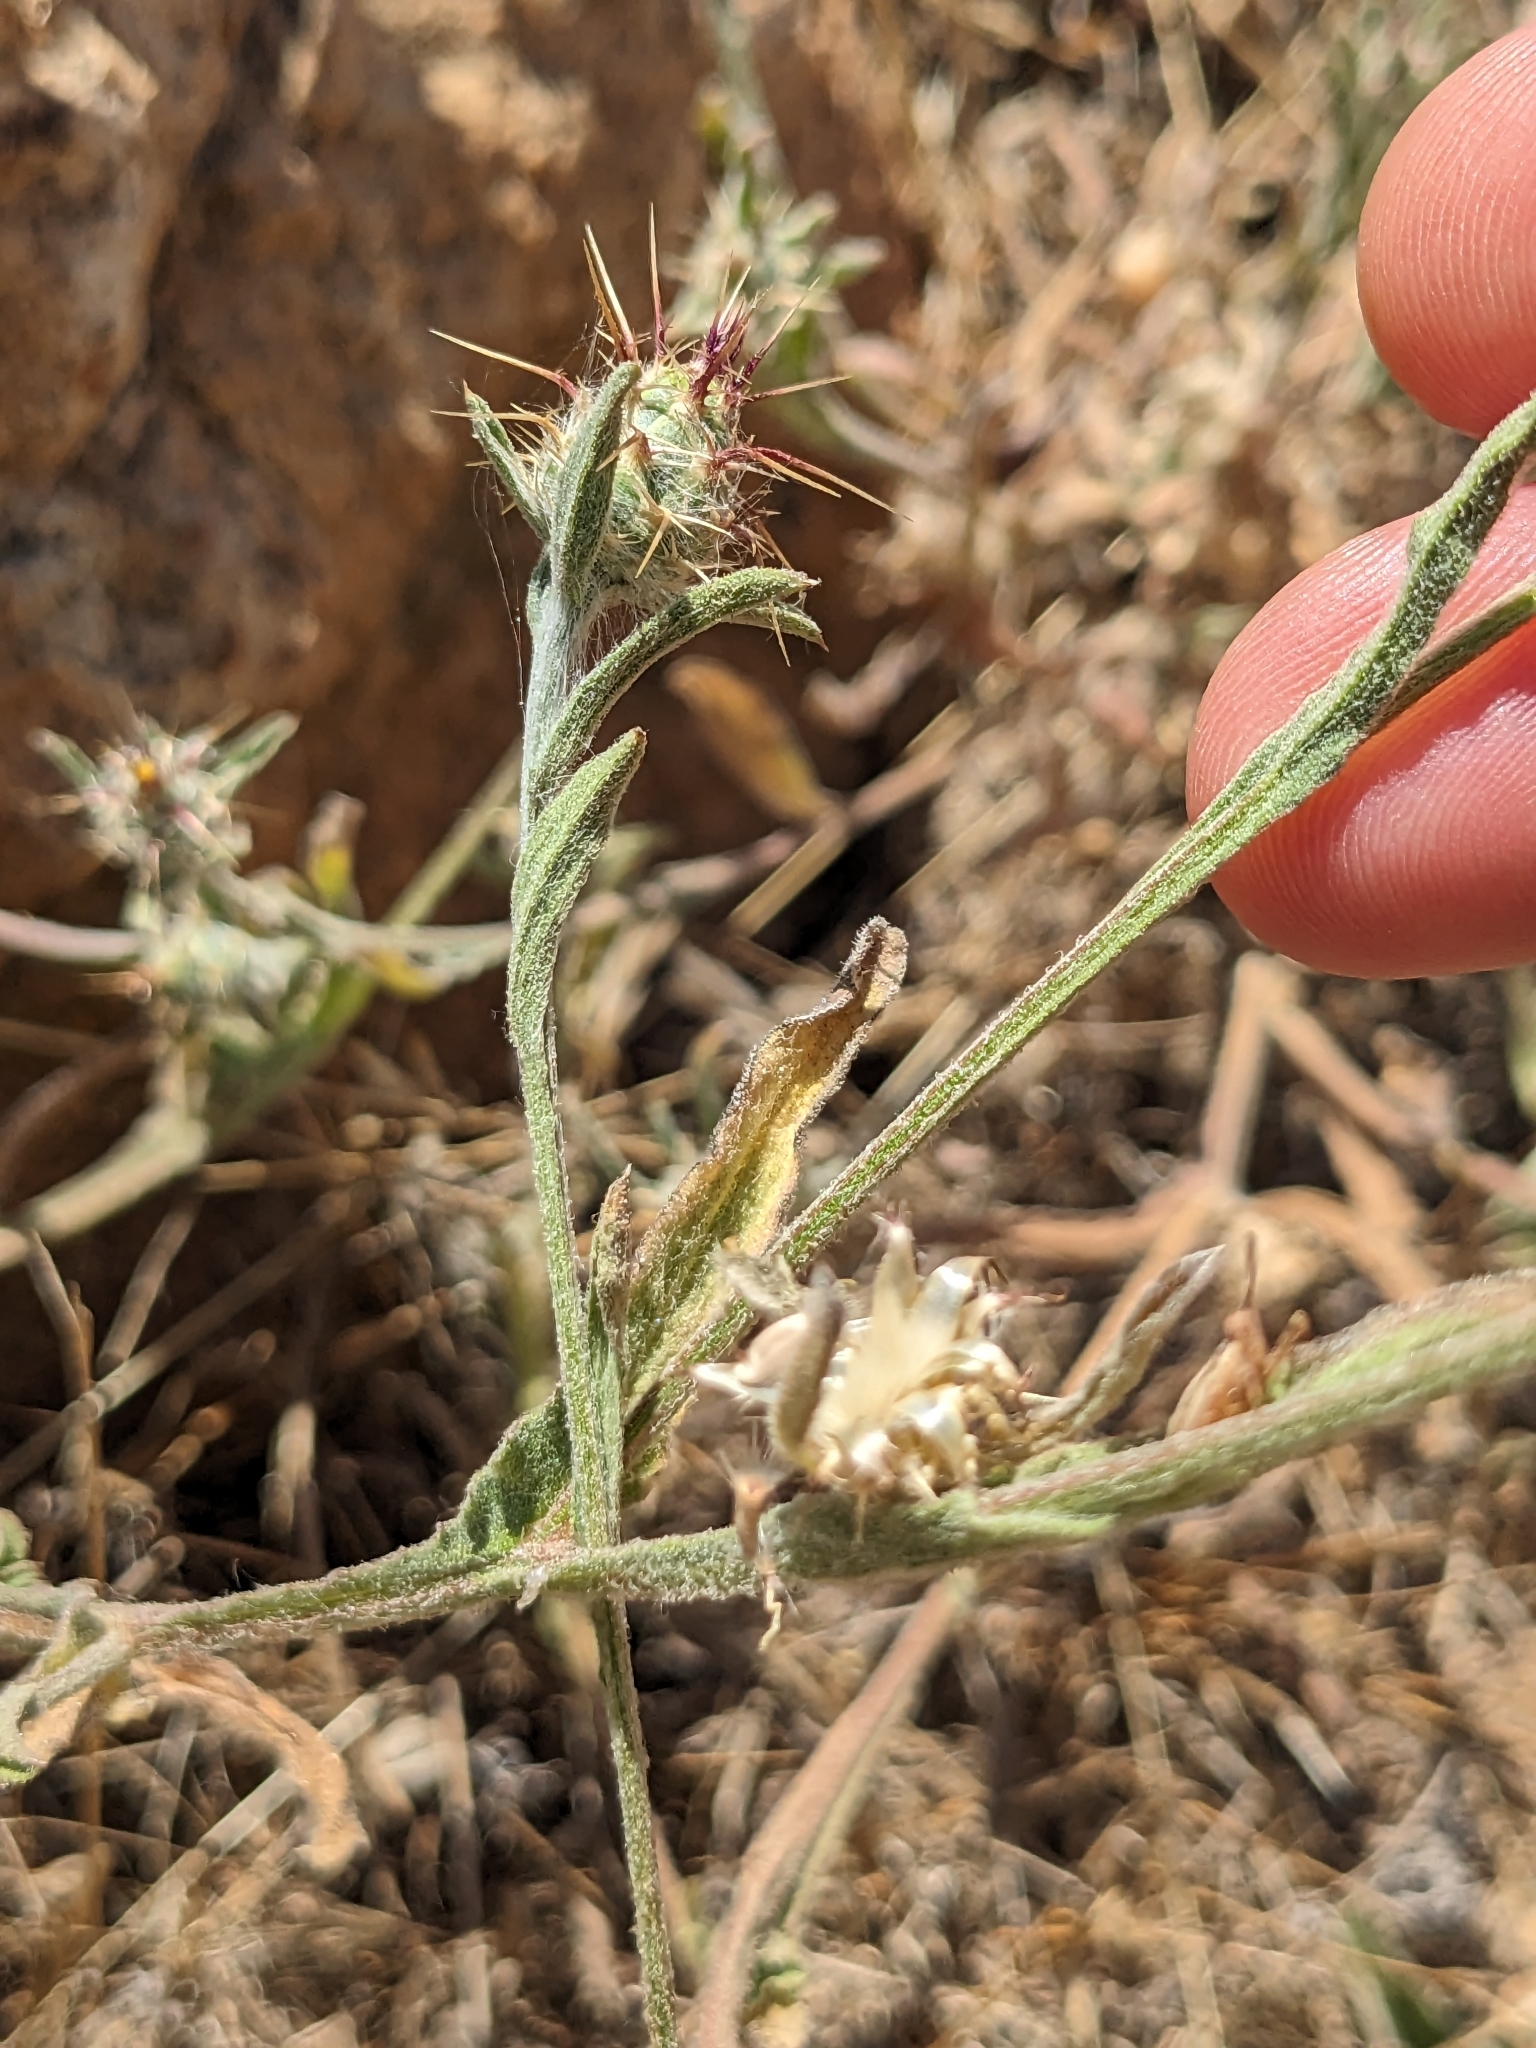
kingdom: Plantae
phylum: Tracheophyta
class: Magnoliopsida
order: Asterales
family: Asteraceae
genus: Centaurea
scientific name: Centaurea melitensis
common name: Maltese star-thistle
